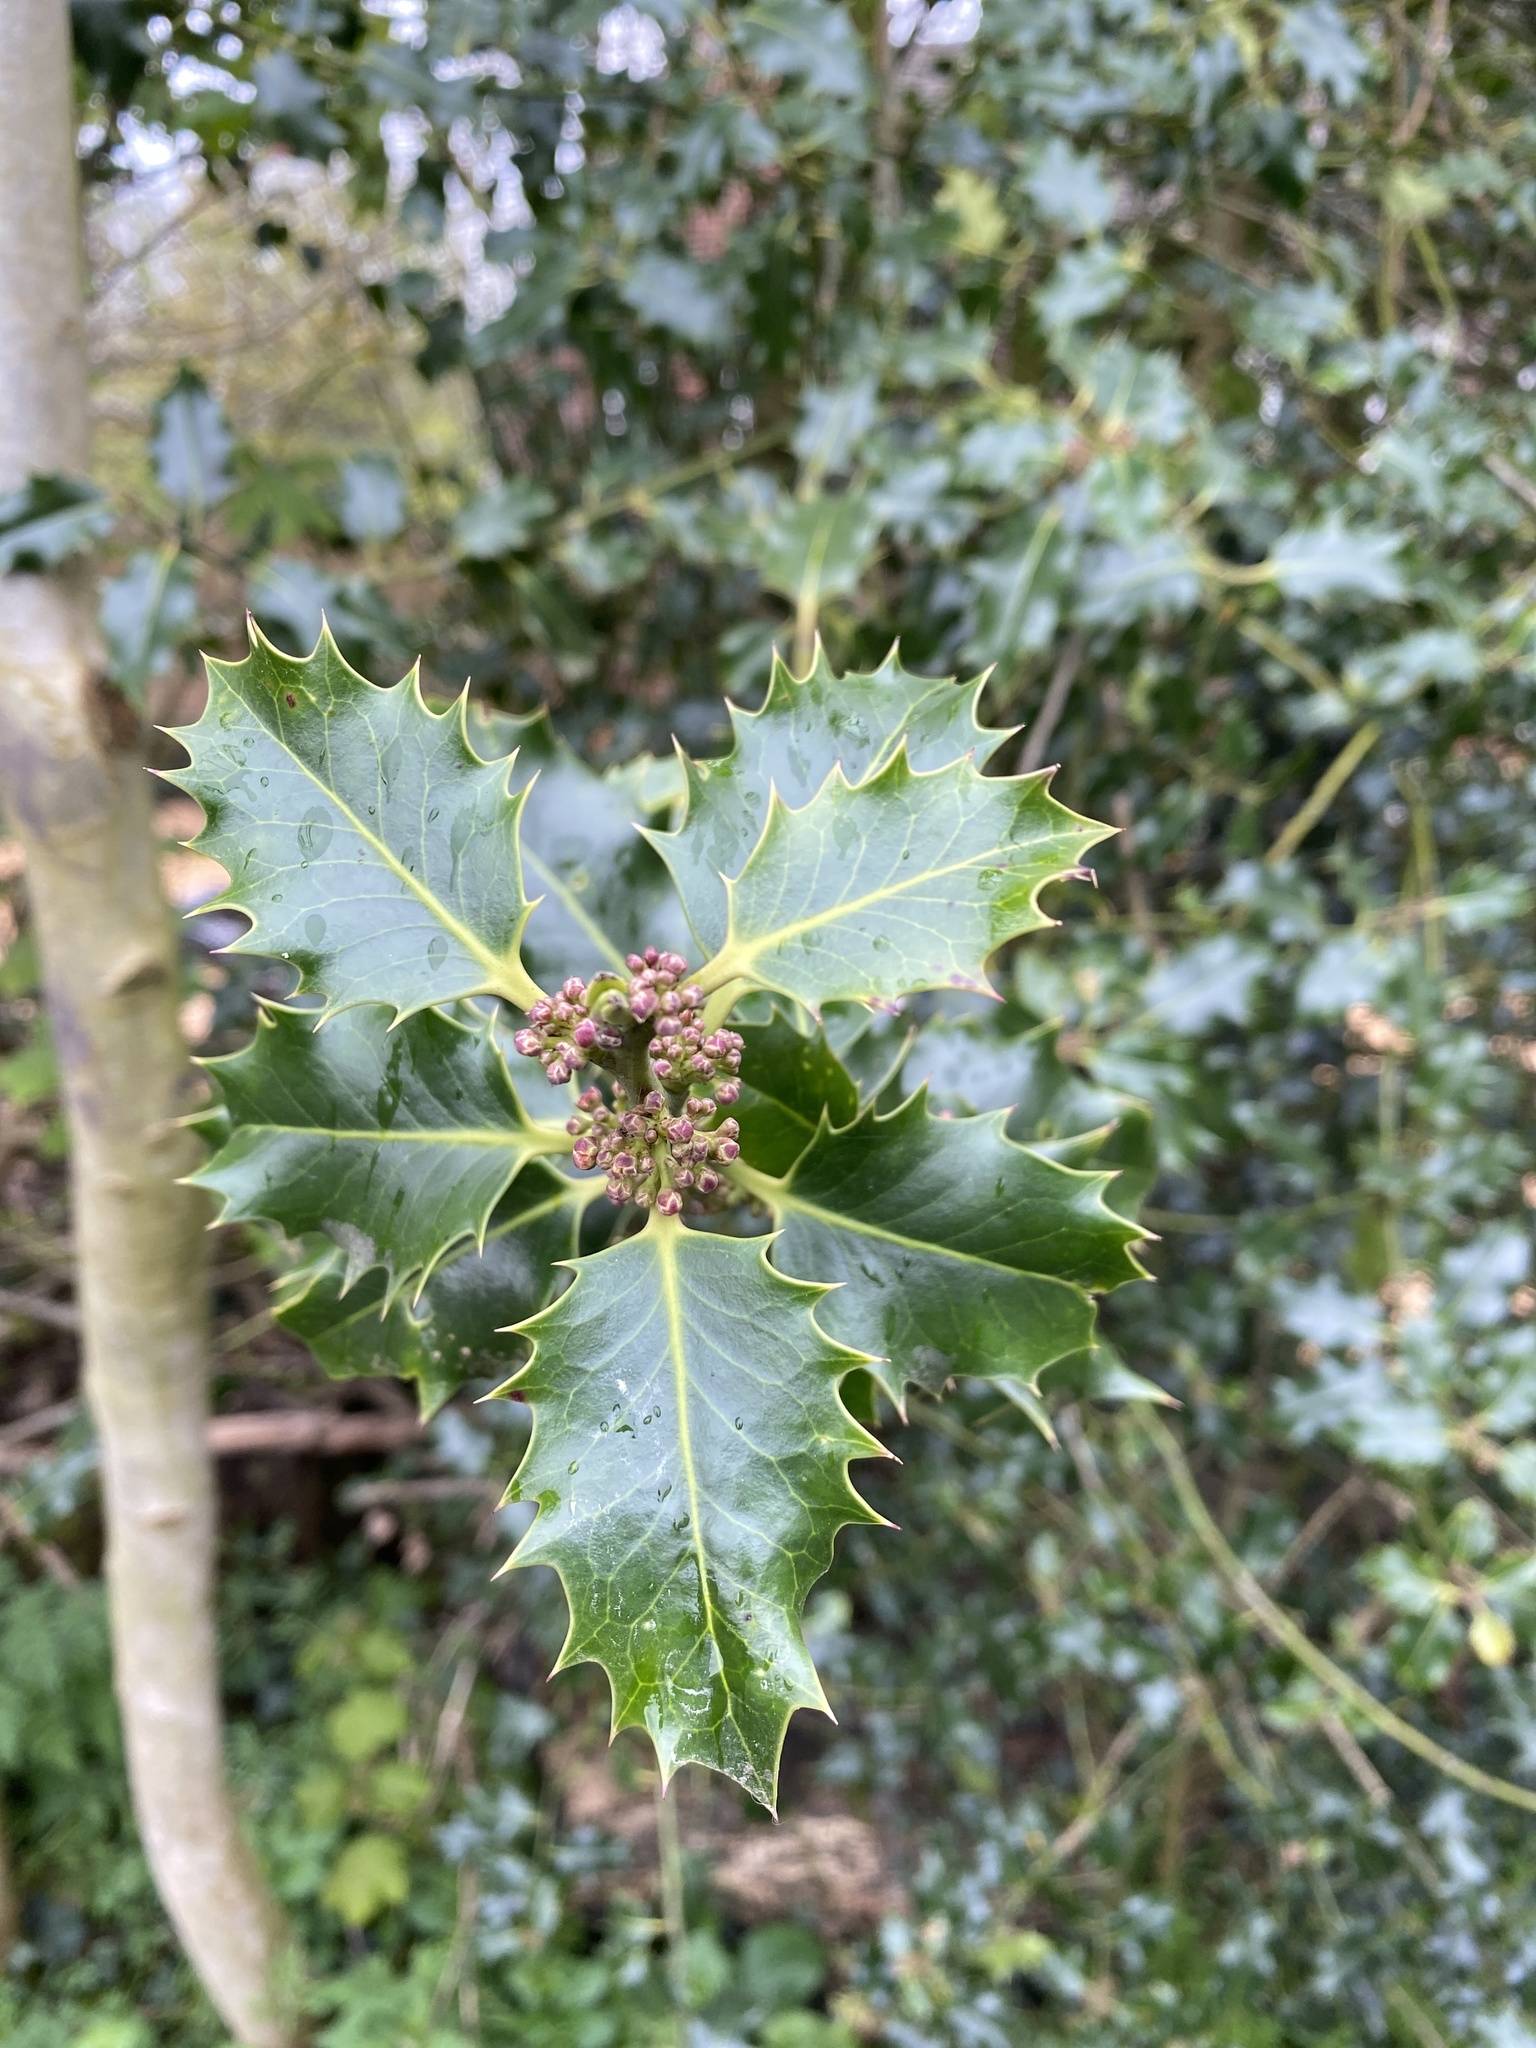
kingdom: Plantae
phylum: Tracheophyta
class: Magnoliopsida
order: Aquifoliales
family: Aquifoliaceae
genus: Ilex
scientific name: Ilex aquifolium
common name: English holly
